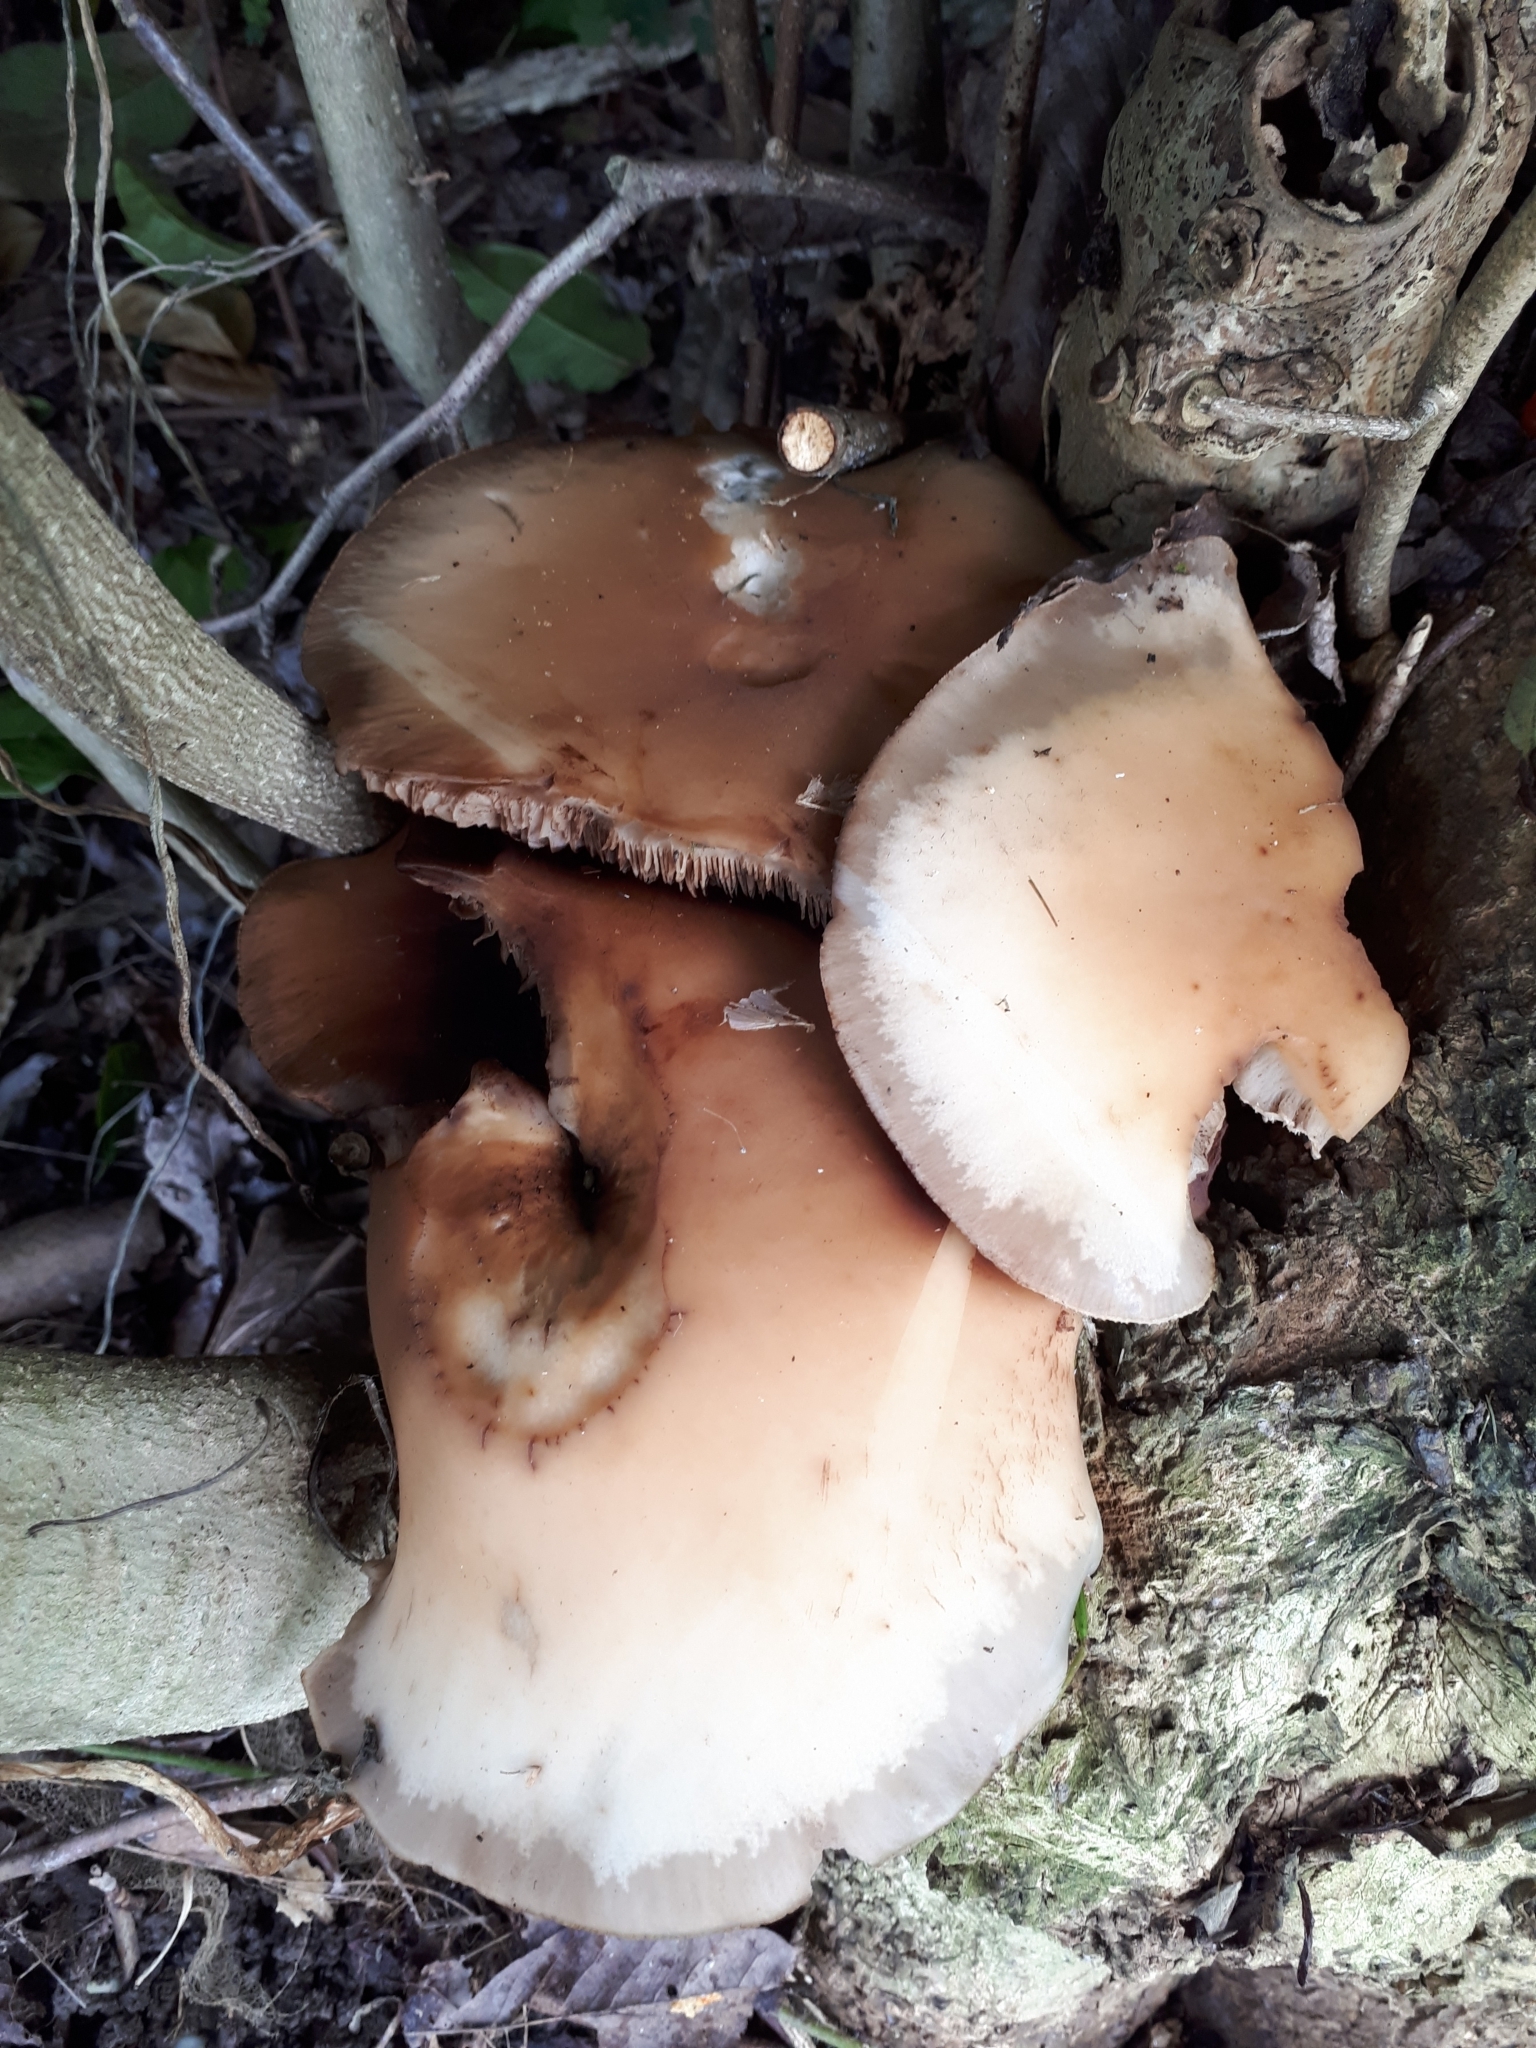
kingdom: Fungi
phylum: Basidiomycota
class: Agaricomycetes
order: Agaricales
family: Tubariaceae
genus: Cyclocybe
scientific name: Cyclocybe parasitica
